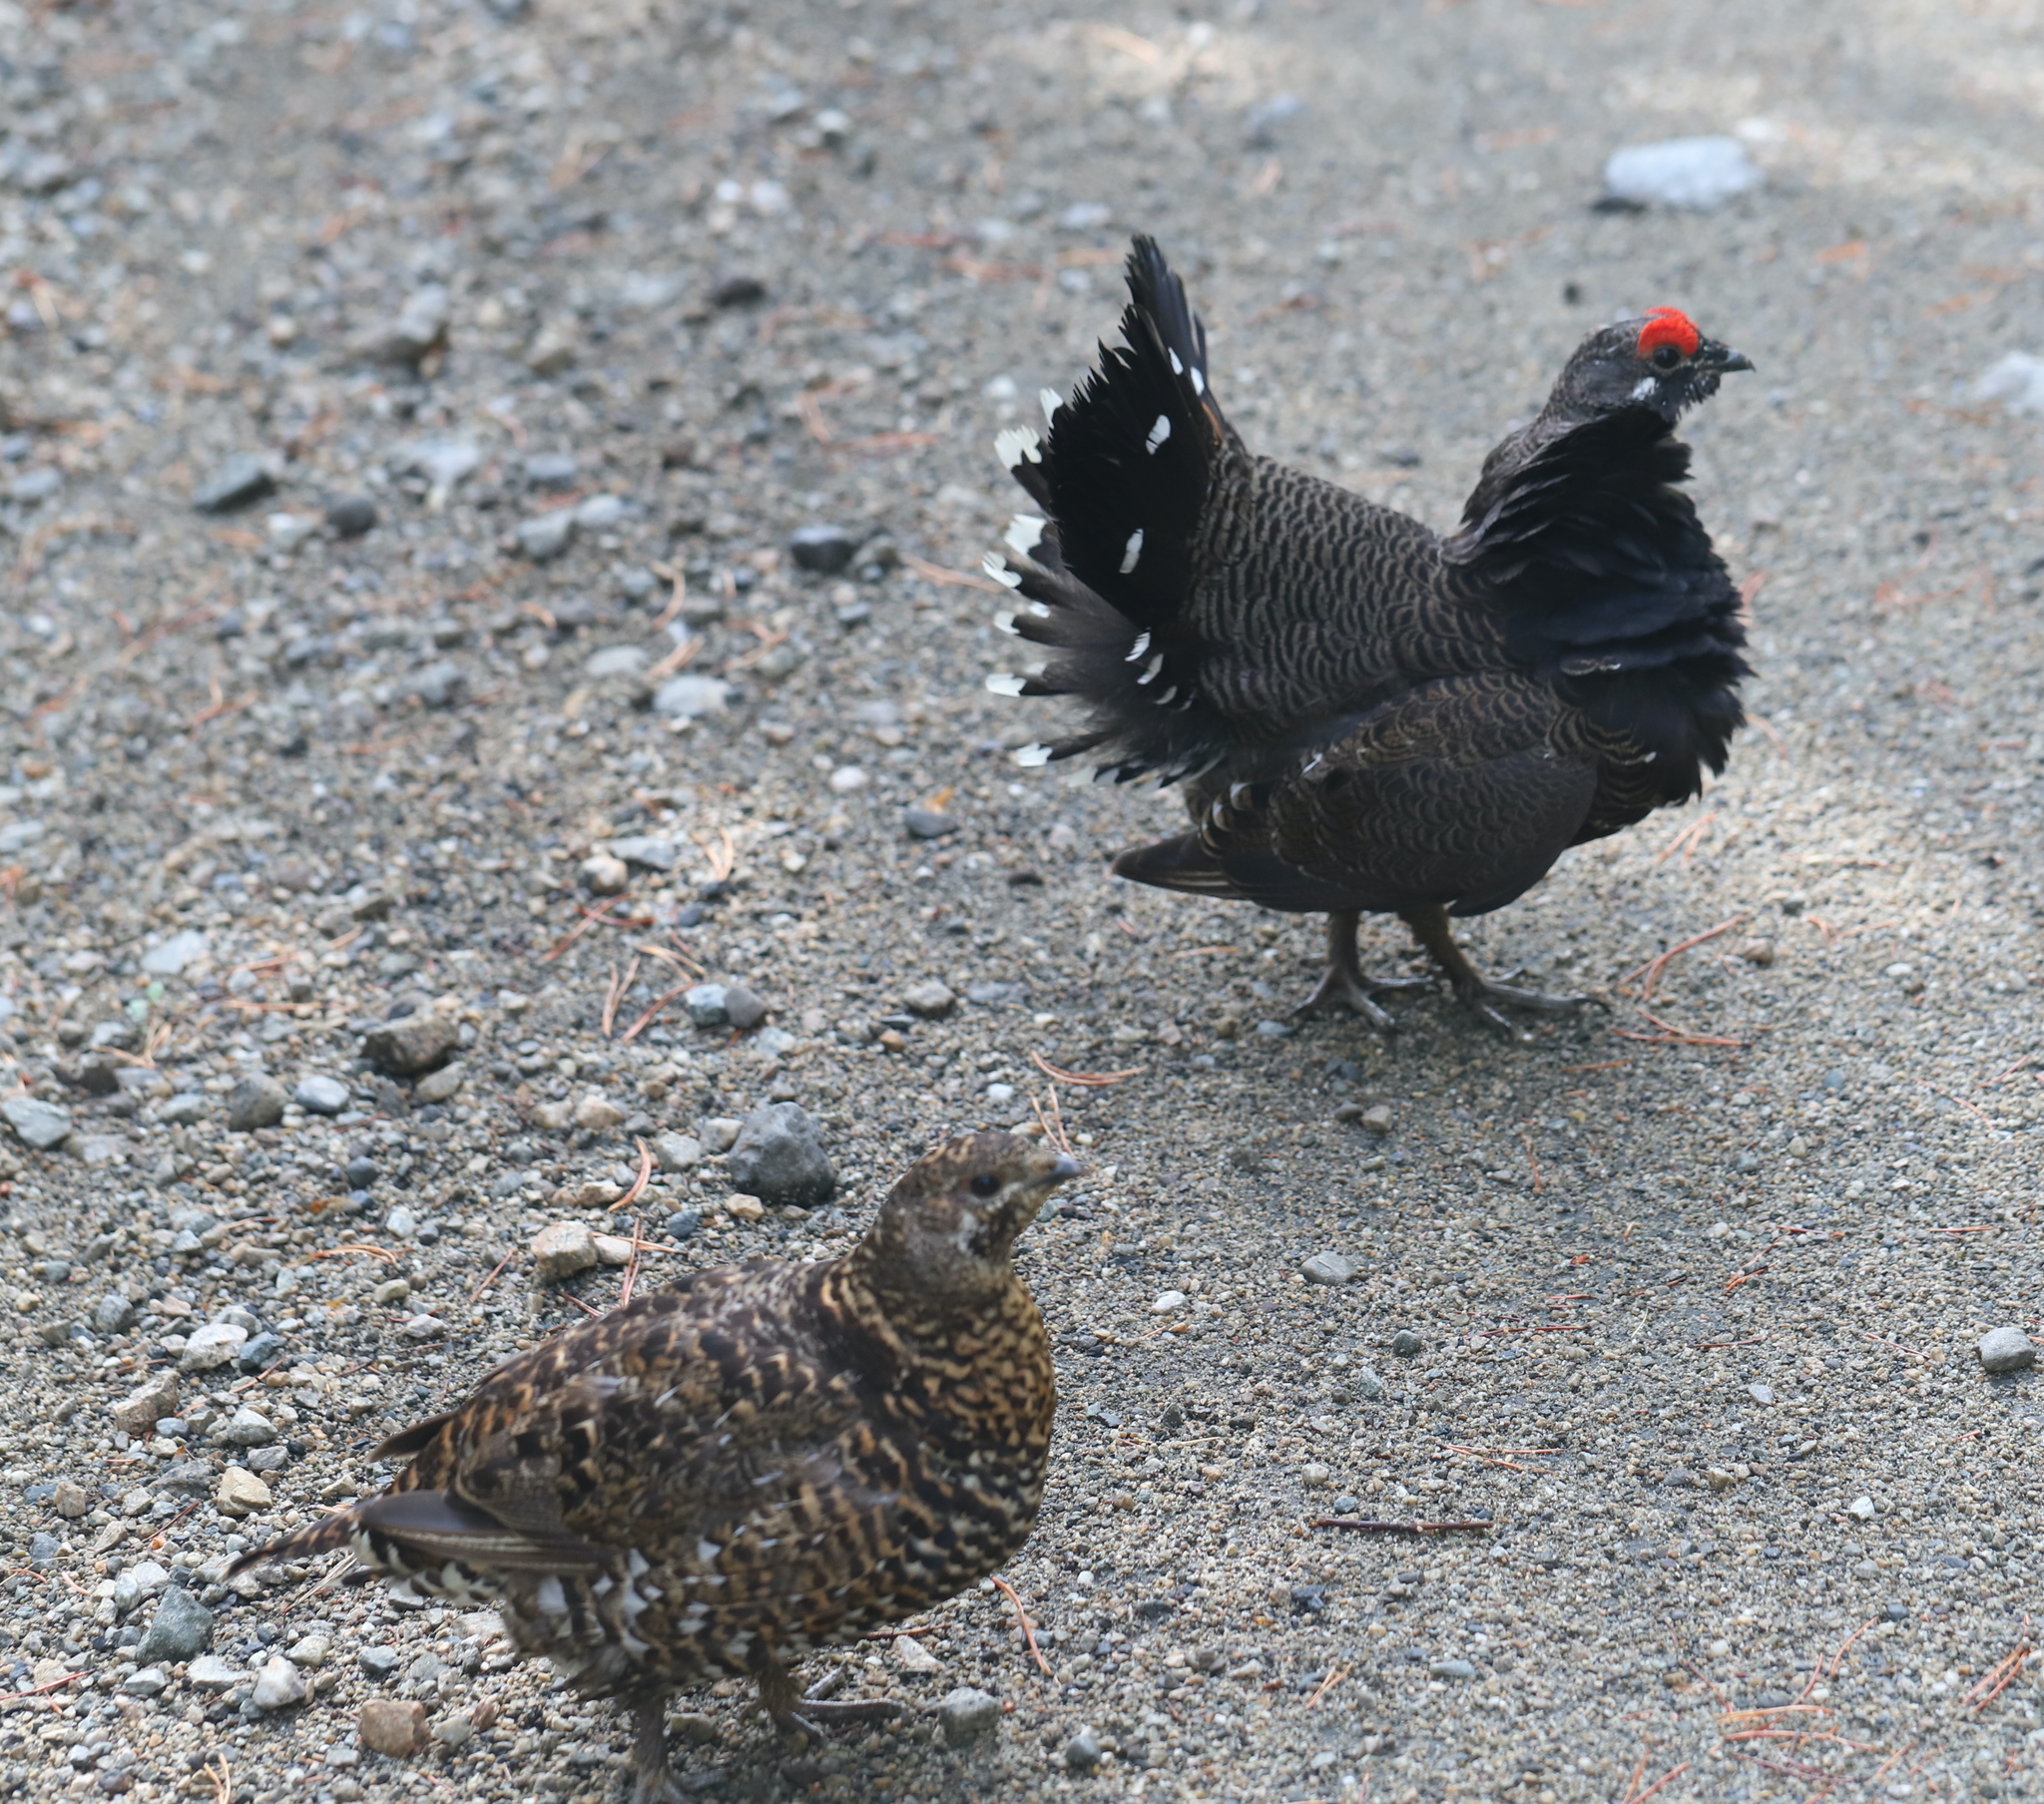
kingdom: Animalia
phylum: Chordata
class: Aves
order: Galliformes
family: Phasianidae
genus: Canachites
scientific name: Canachites canadensis
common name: Spruce grouse
